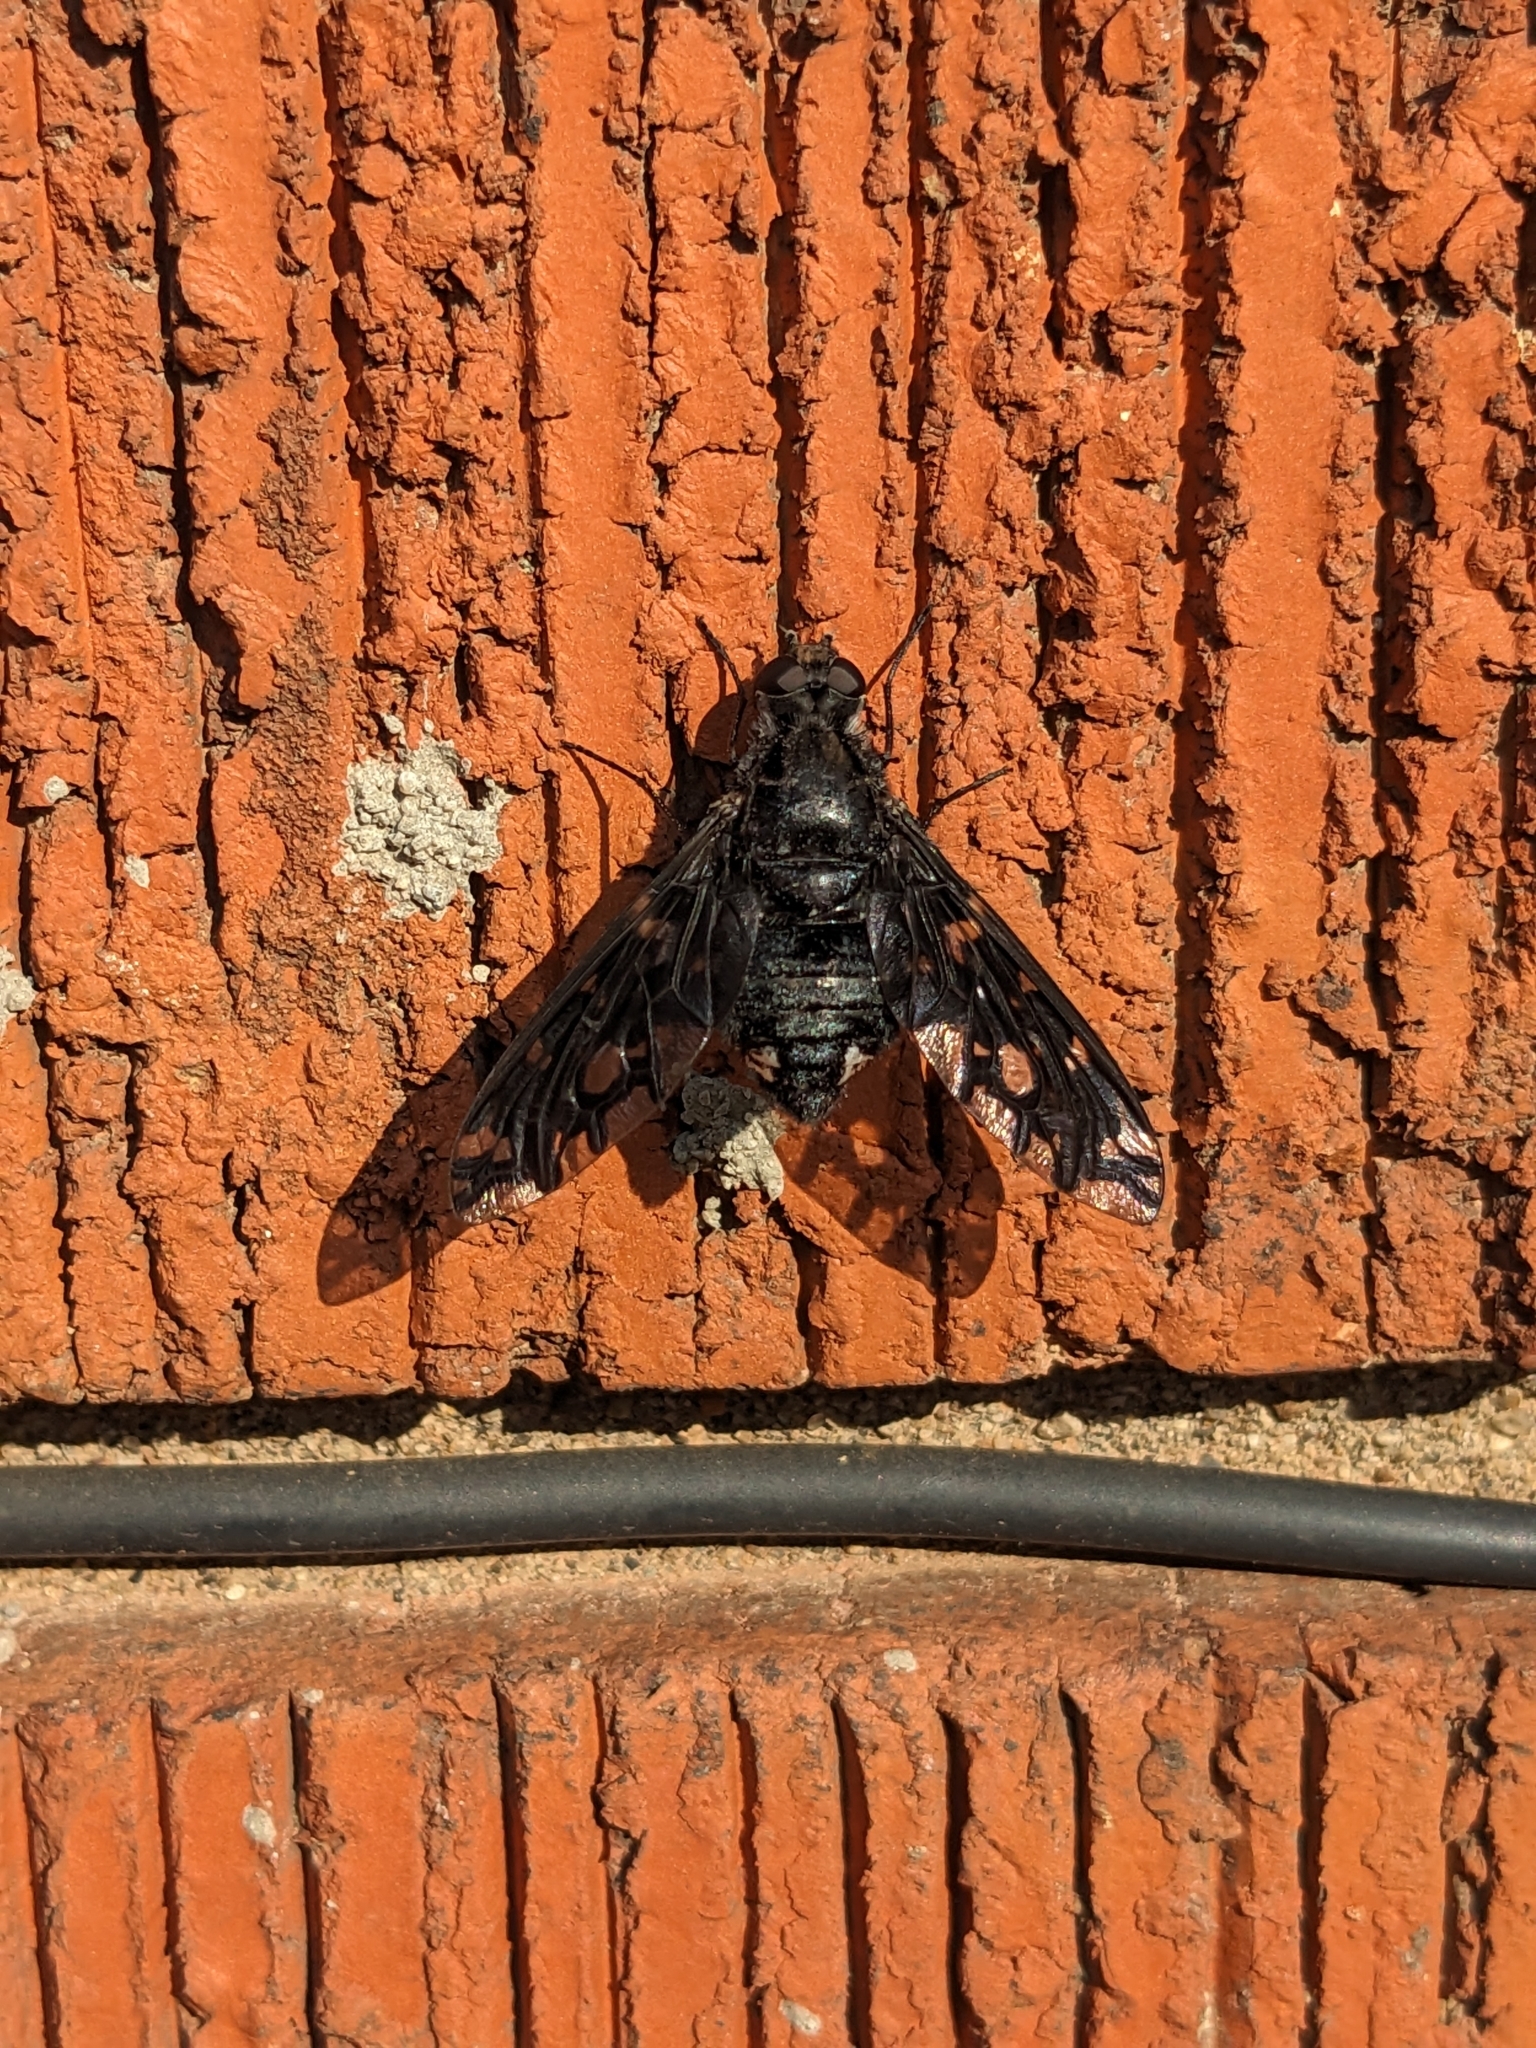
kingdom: Animalia
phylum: Arthropoda
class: Insecta
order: Diptera
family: Bombyliidae
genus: Xenox
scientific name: Xenox tigrinus
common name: Tiger bee fly
